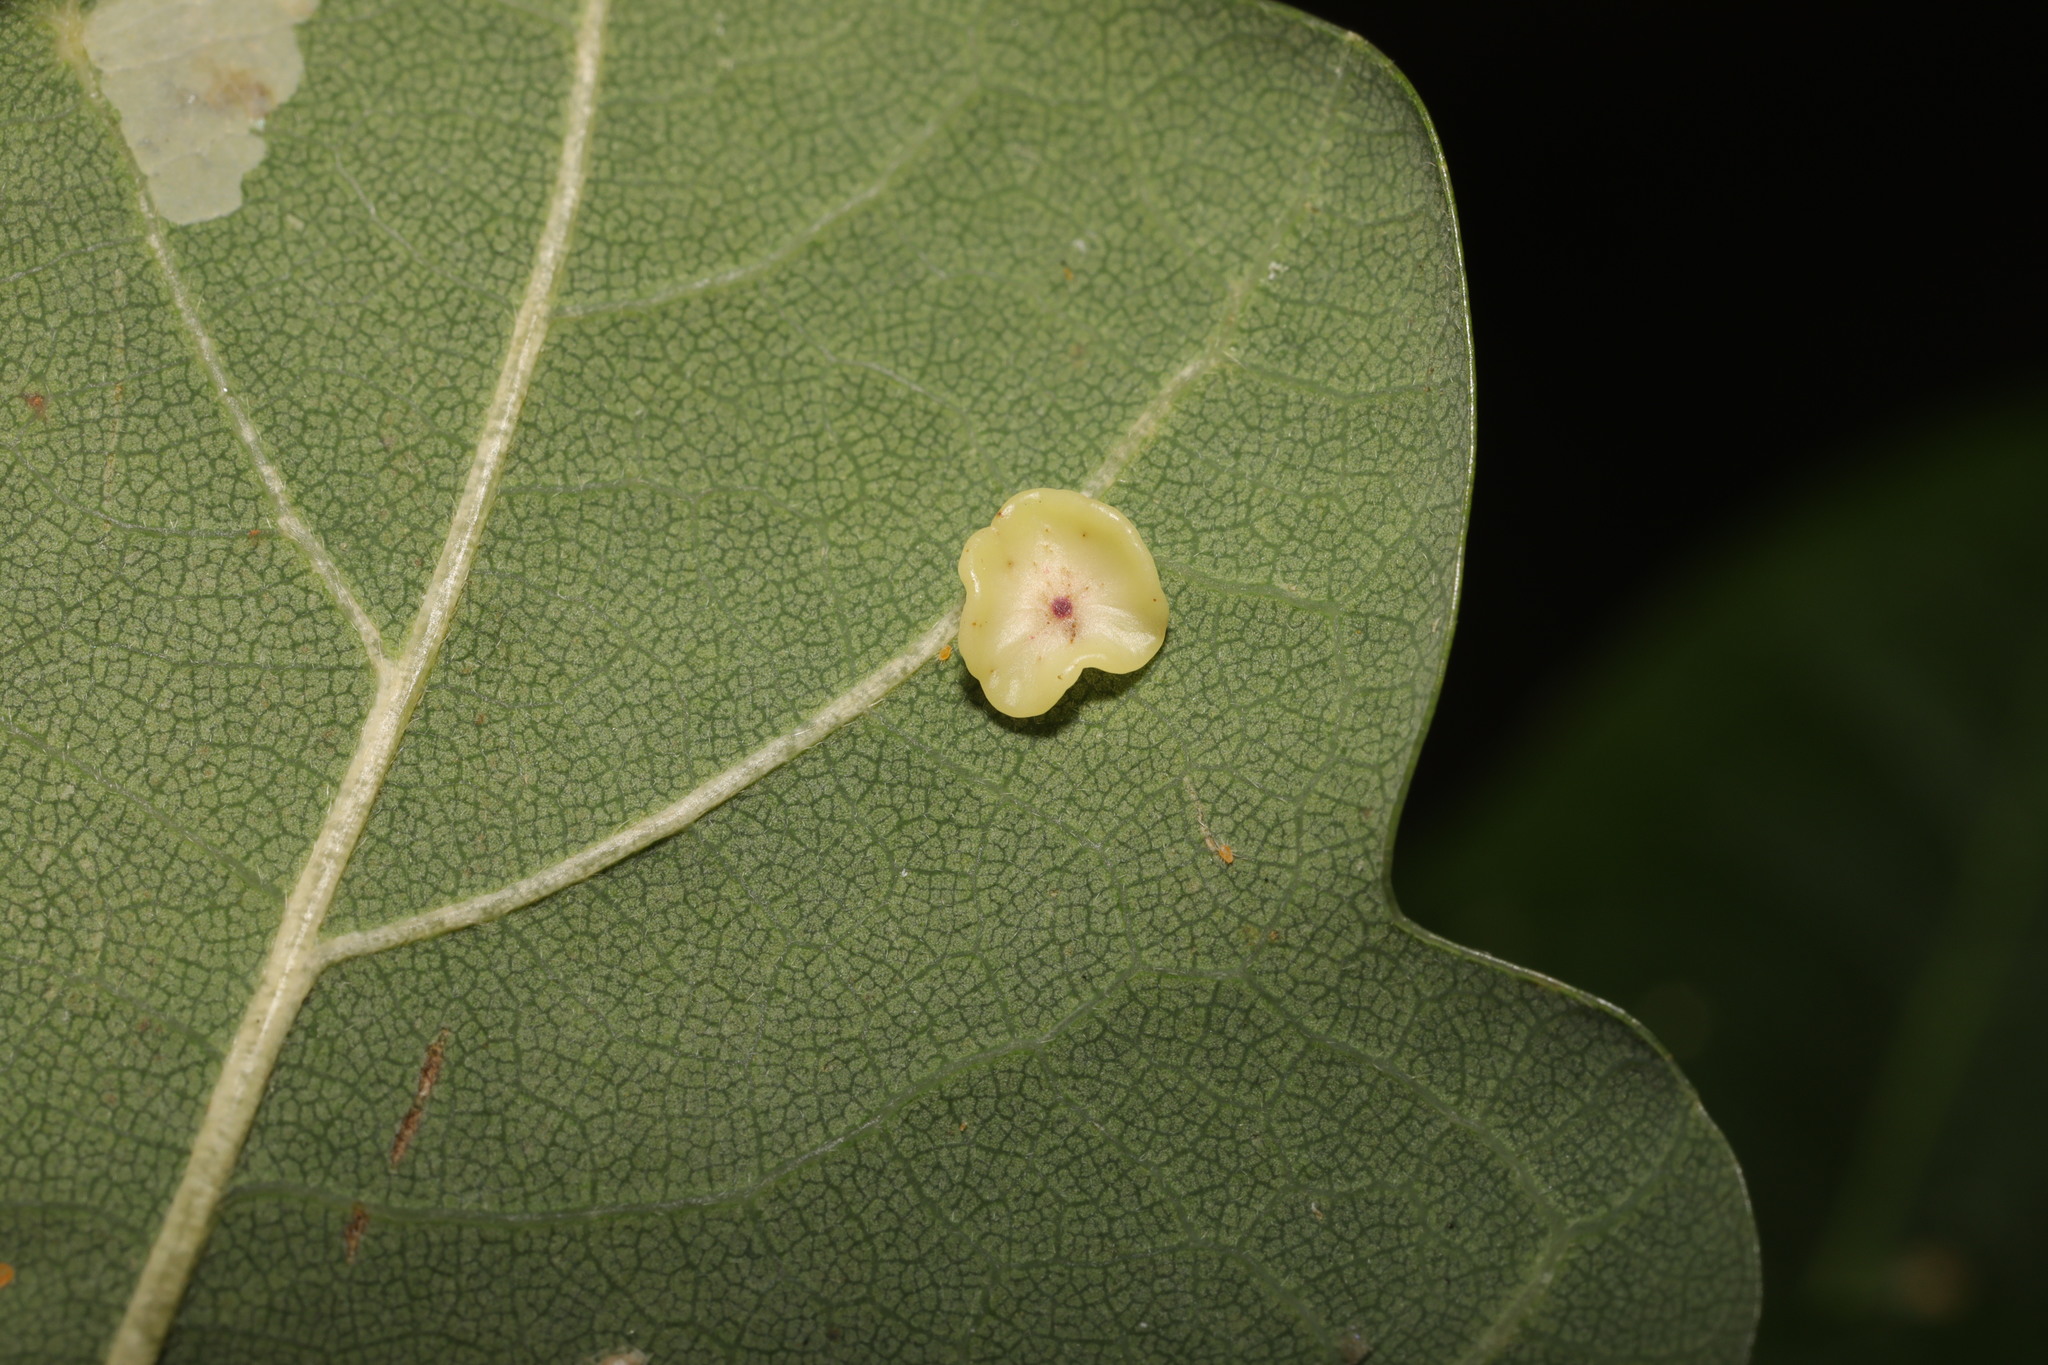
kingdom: Animalia
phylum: Arthropoda
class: Insecta
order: Hymenoptera
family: Cynipidae
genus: Neuroterus
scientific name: Neuroterus albipes
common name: Smooth spangle gall
